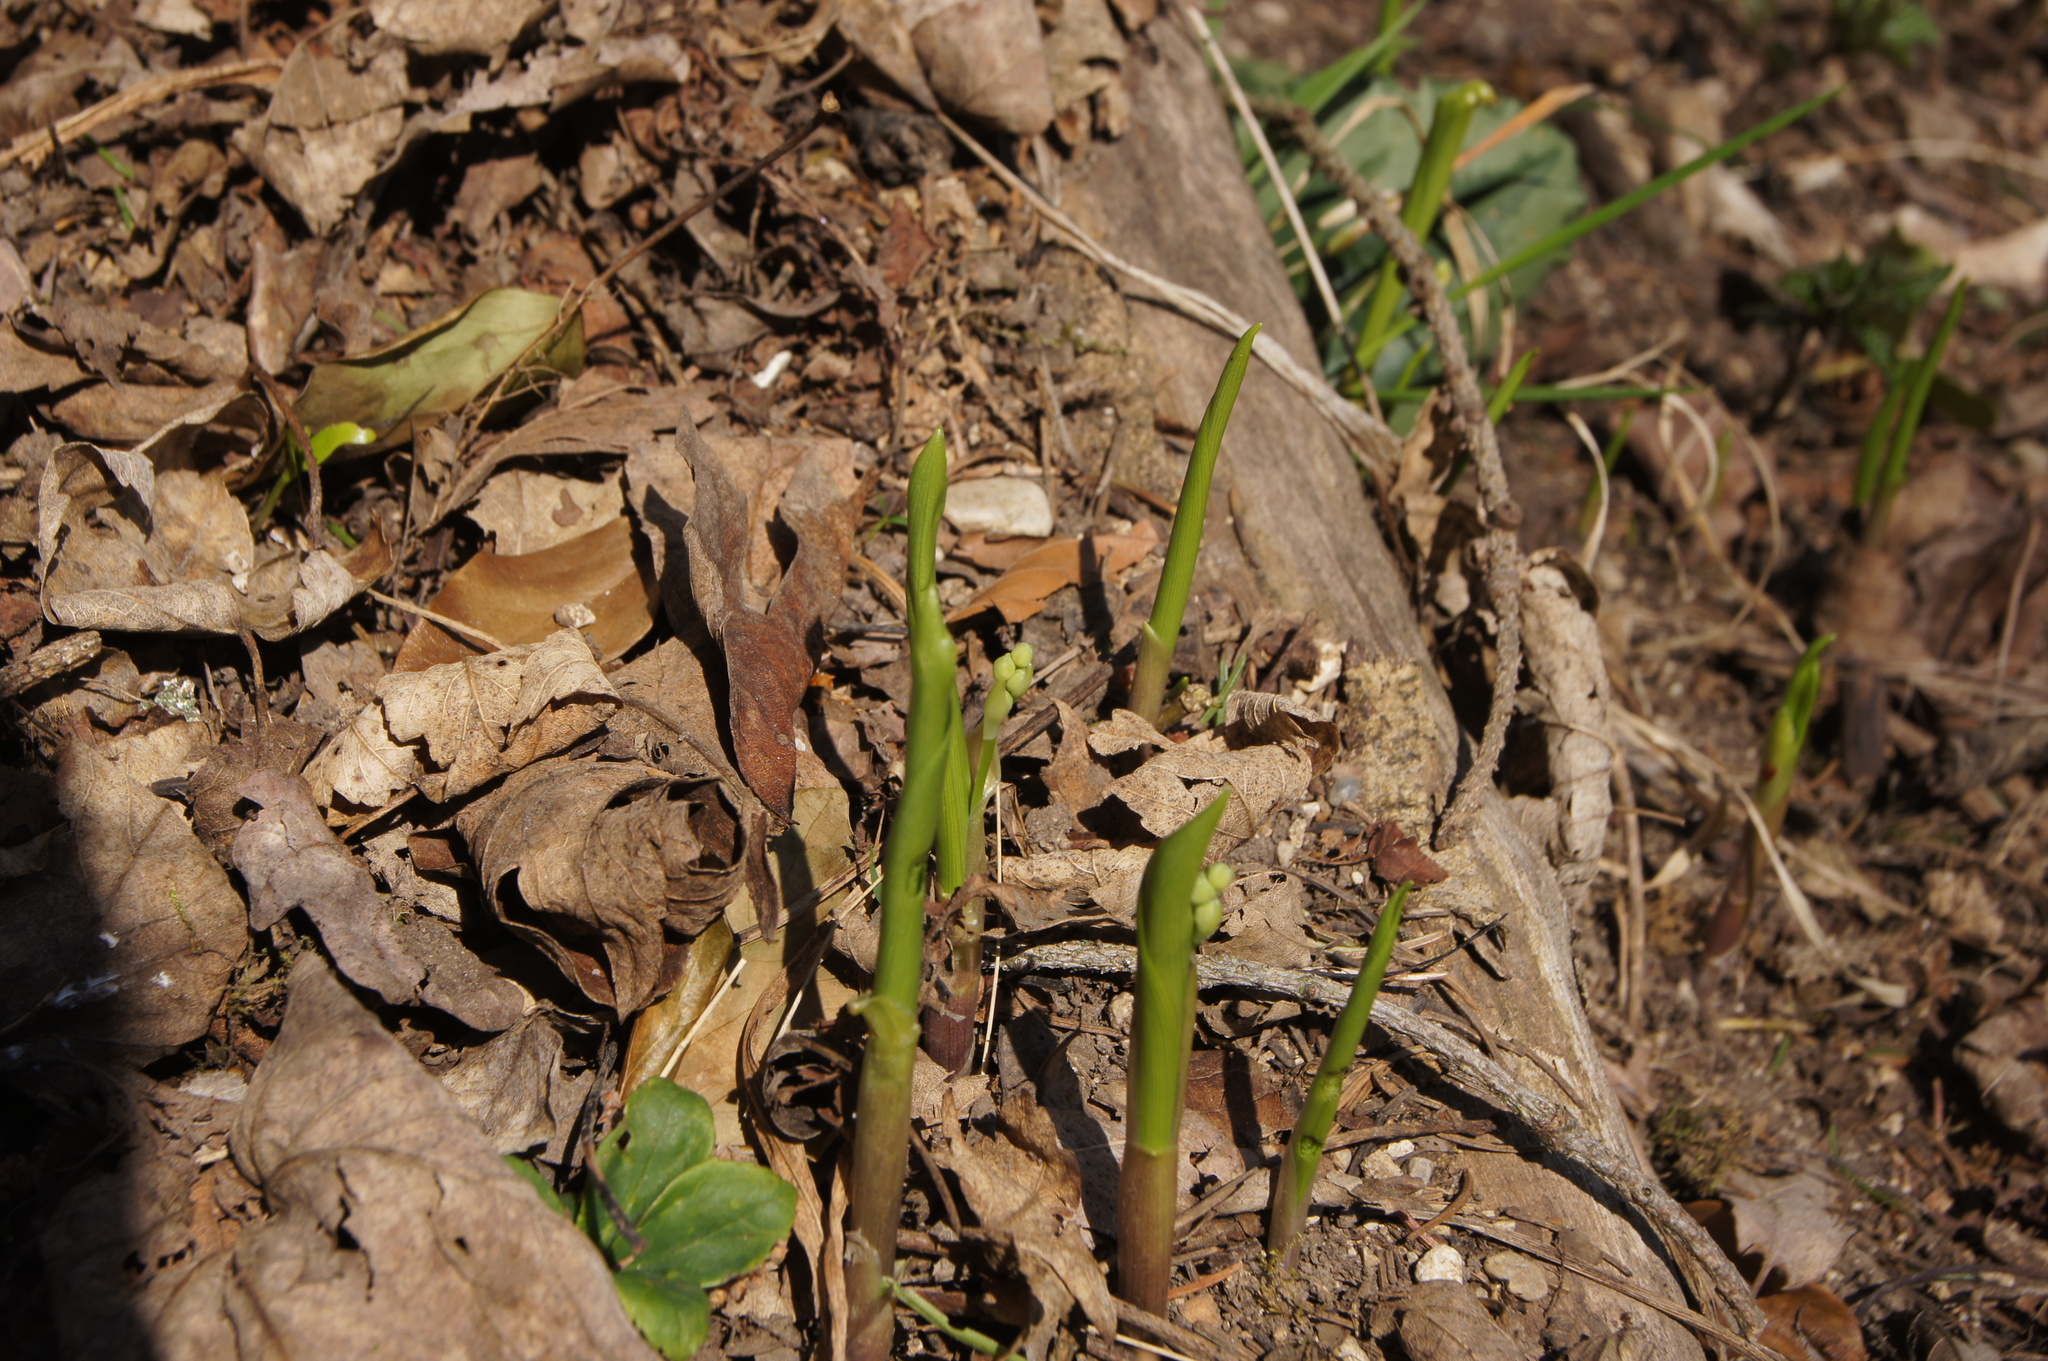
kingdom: Plantae
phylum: Tracheophyta
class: Liliopsida
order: Asparagales
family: Asparagaceae
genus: Convallaria
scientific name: Convallaria majalis
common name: Lily-of-the-valley
